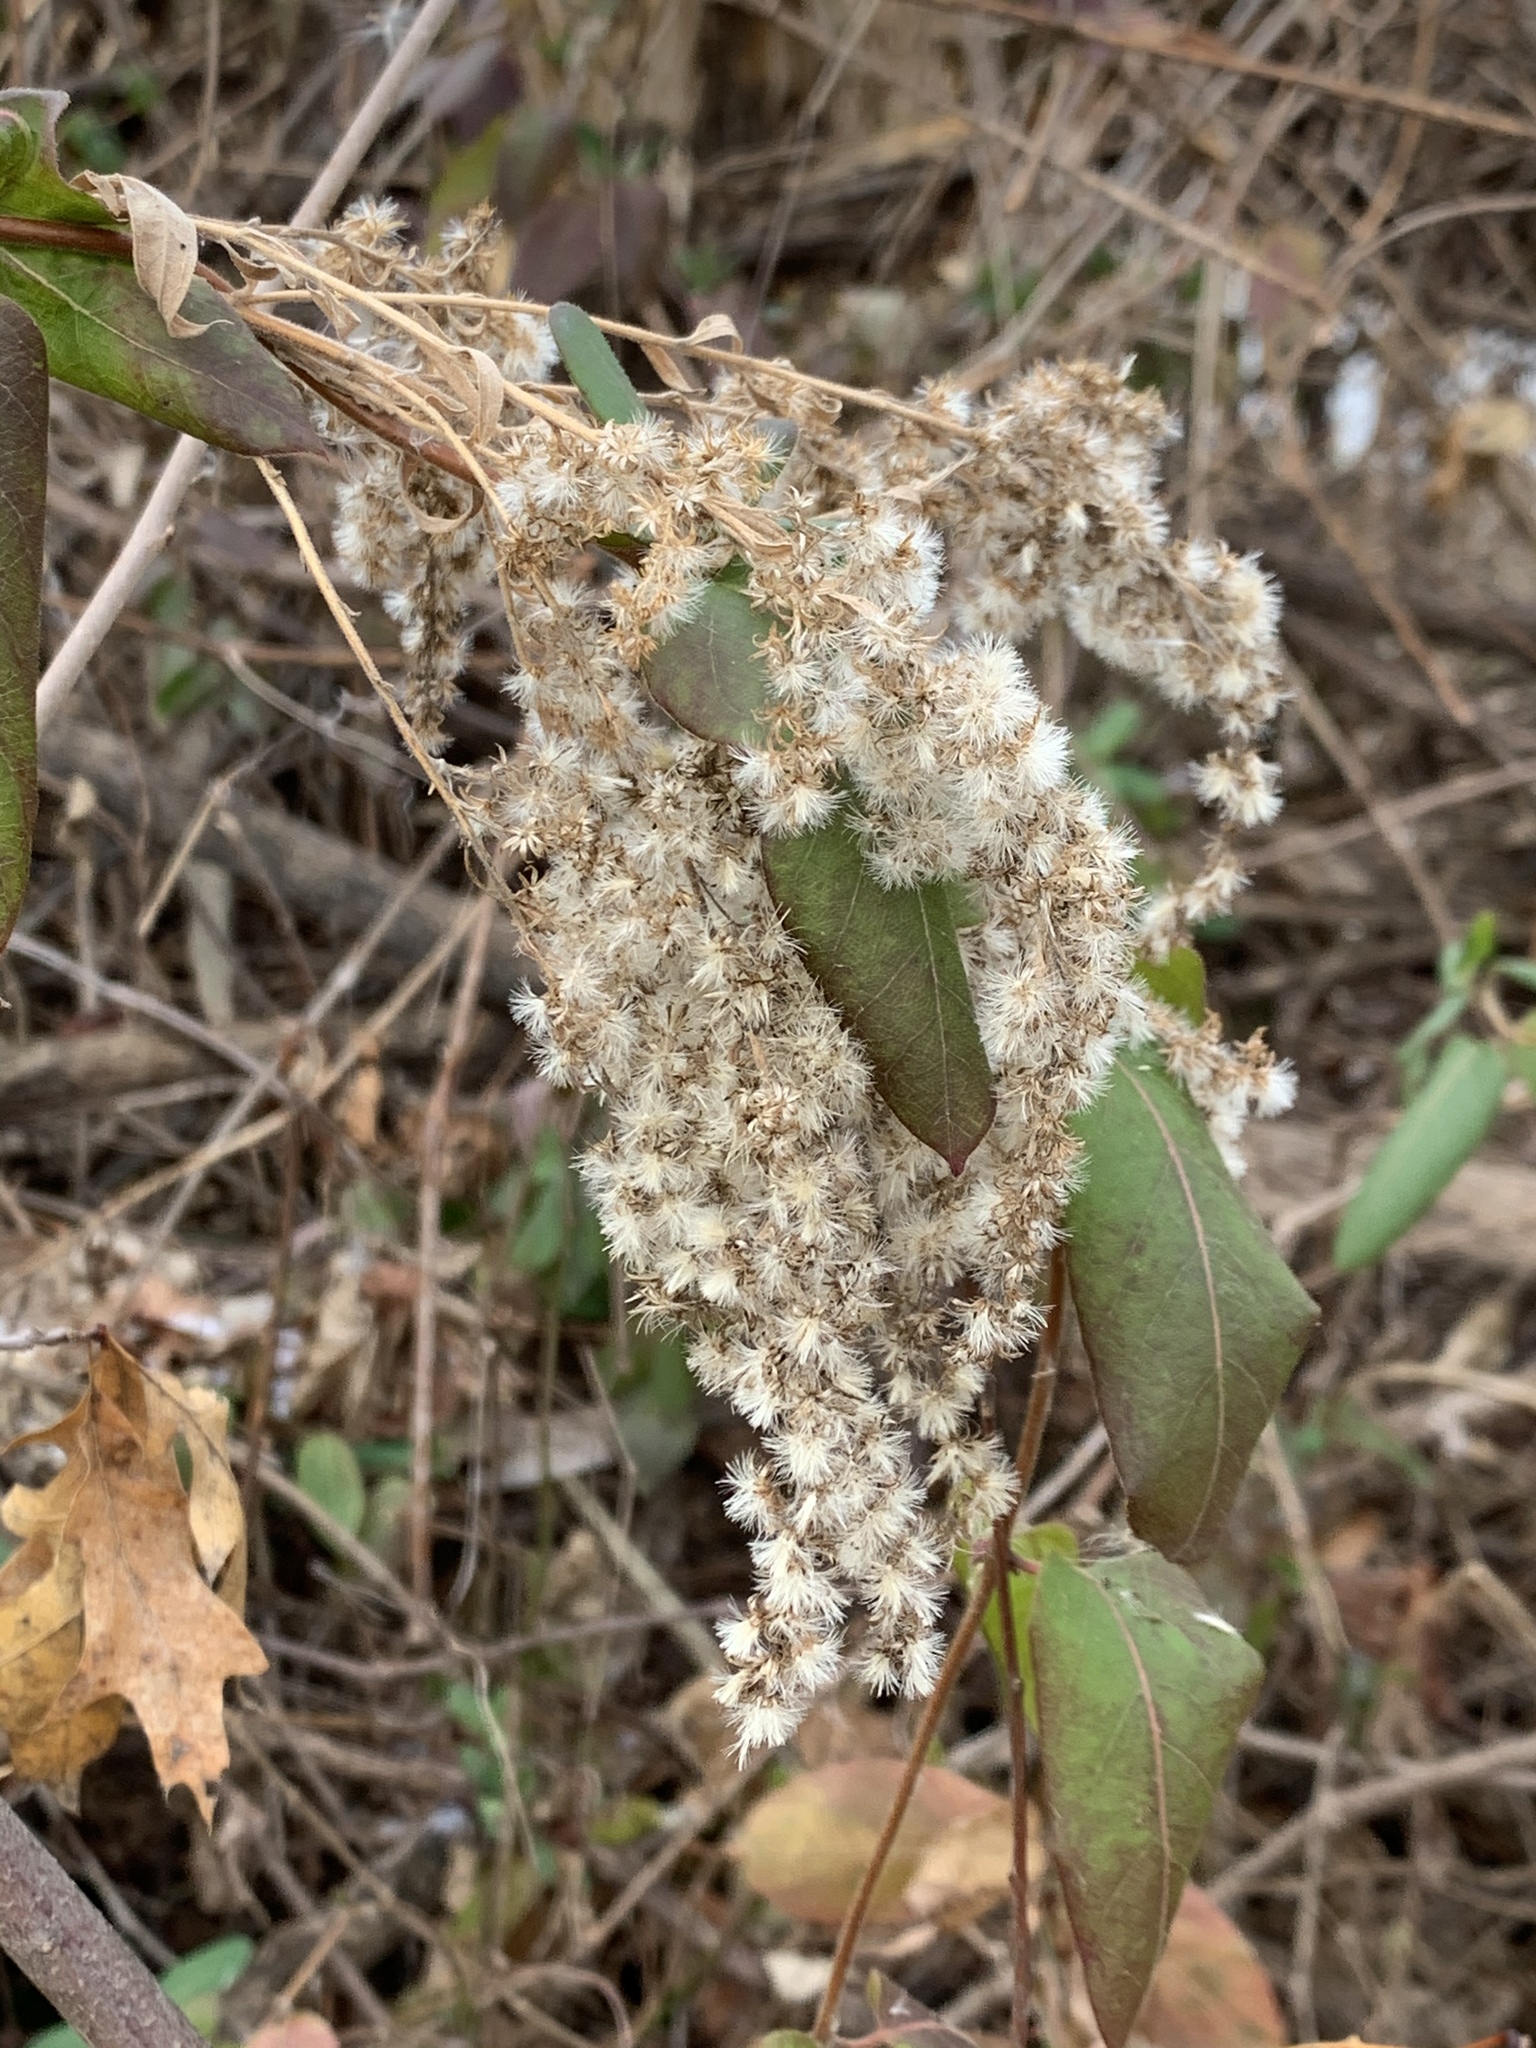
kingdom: Plantae
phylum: Tracheophyta
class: Magnoliopsida
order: Asterales
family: Asteraceae
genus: Solidago
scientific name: Solidago sempervirens
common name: Salt-marsh goldenrod
